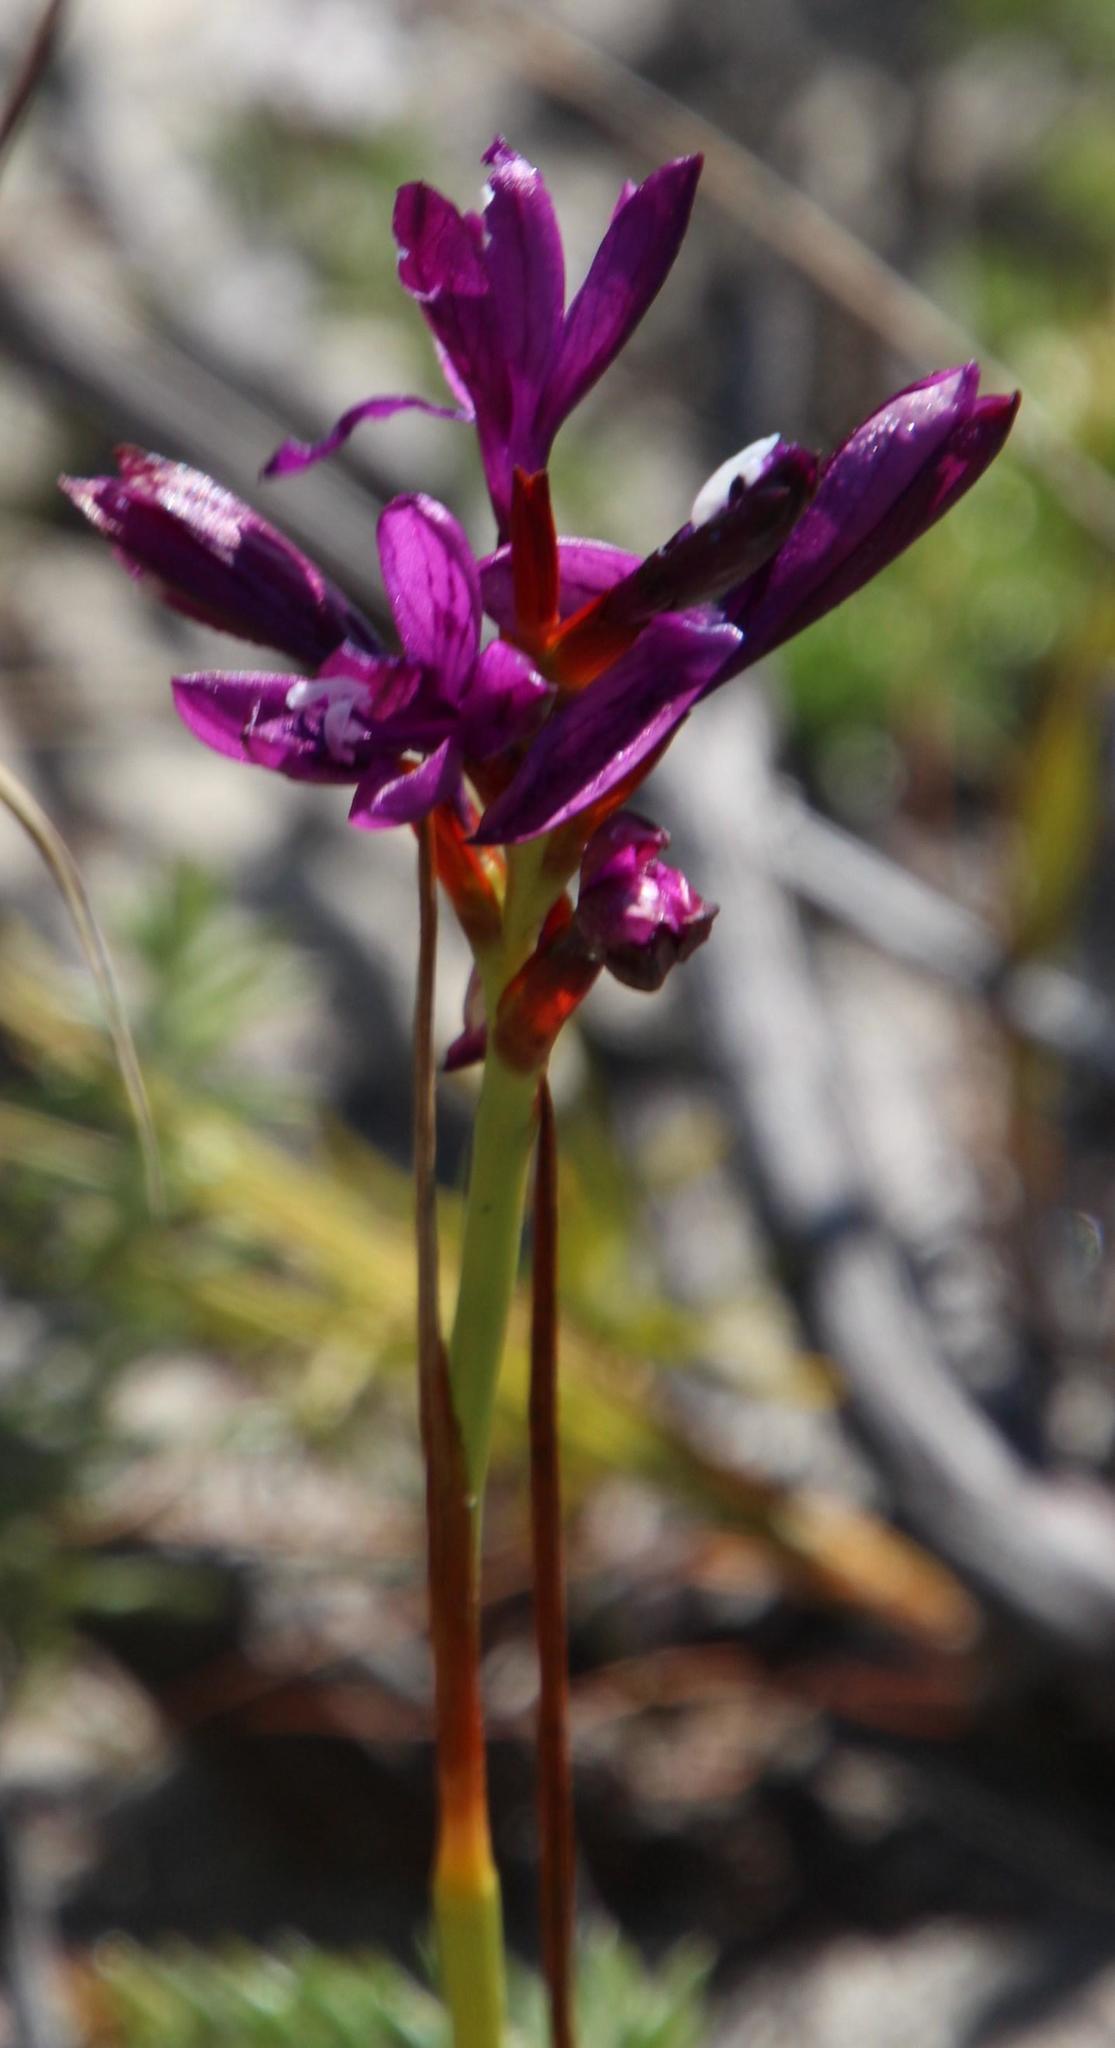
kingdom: Plantae
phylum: Tracheophyta
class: Liliopsida
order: Asparagales
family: Iridaceae
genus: Thereianthus
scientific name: Thereianthus bracteolatus
